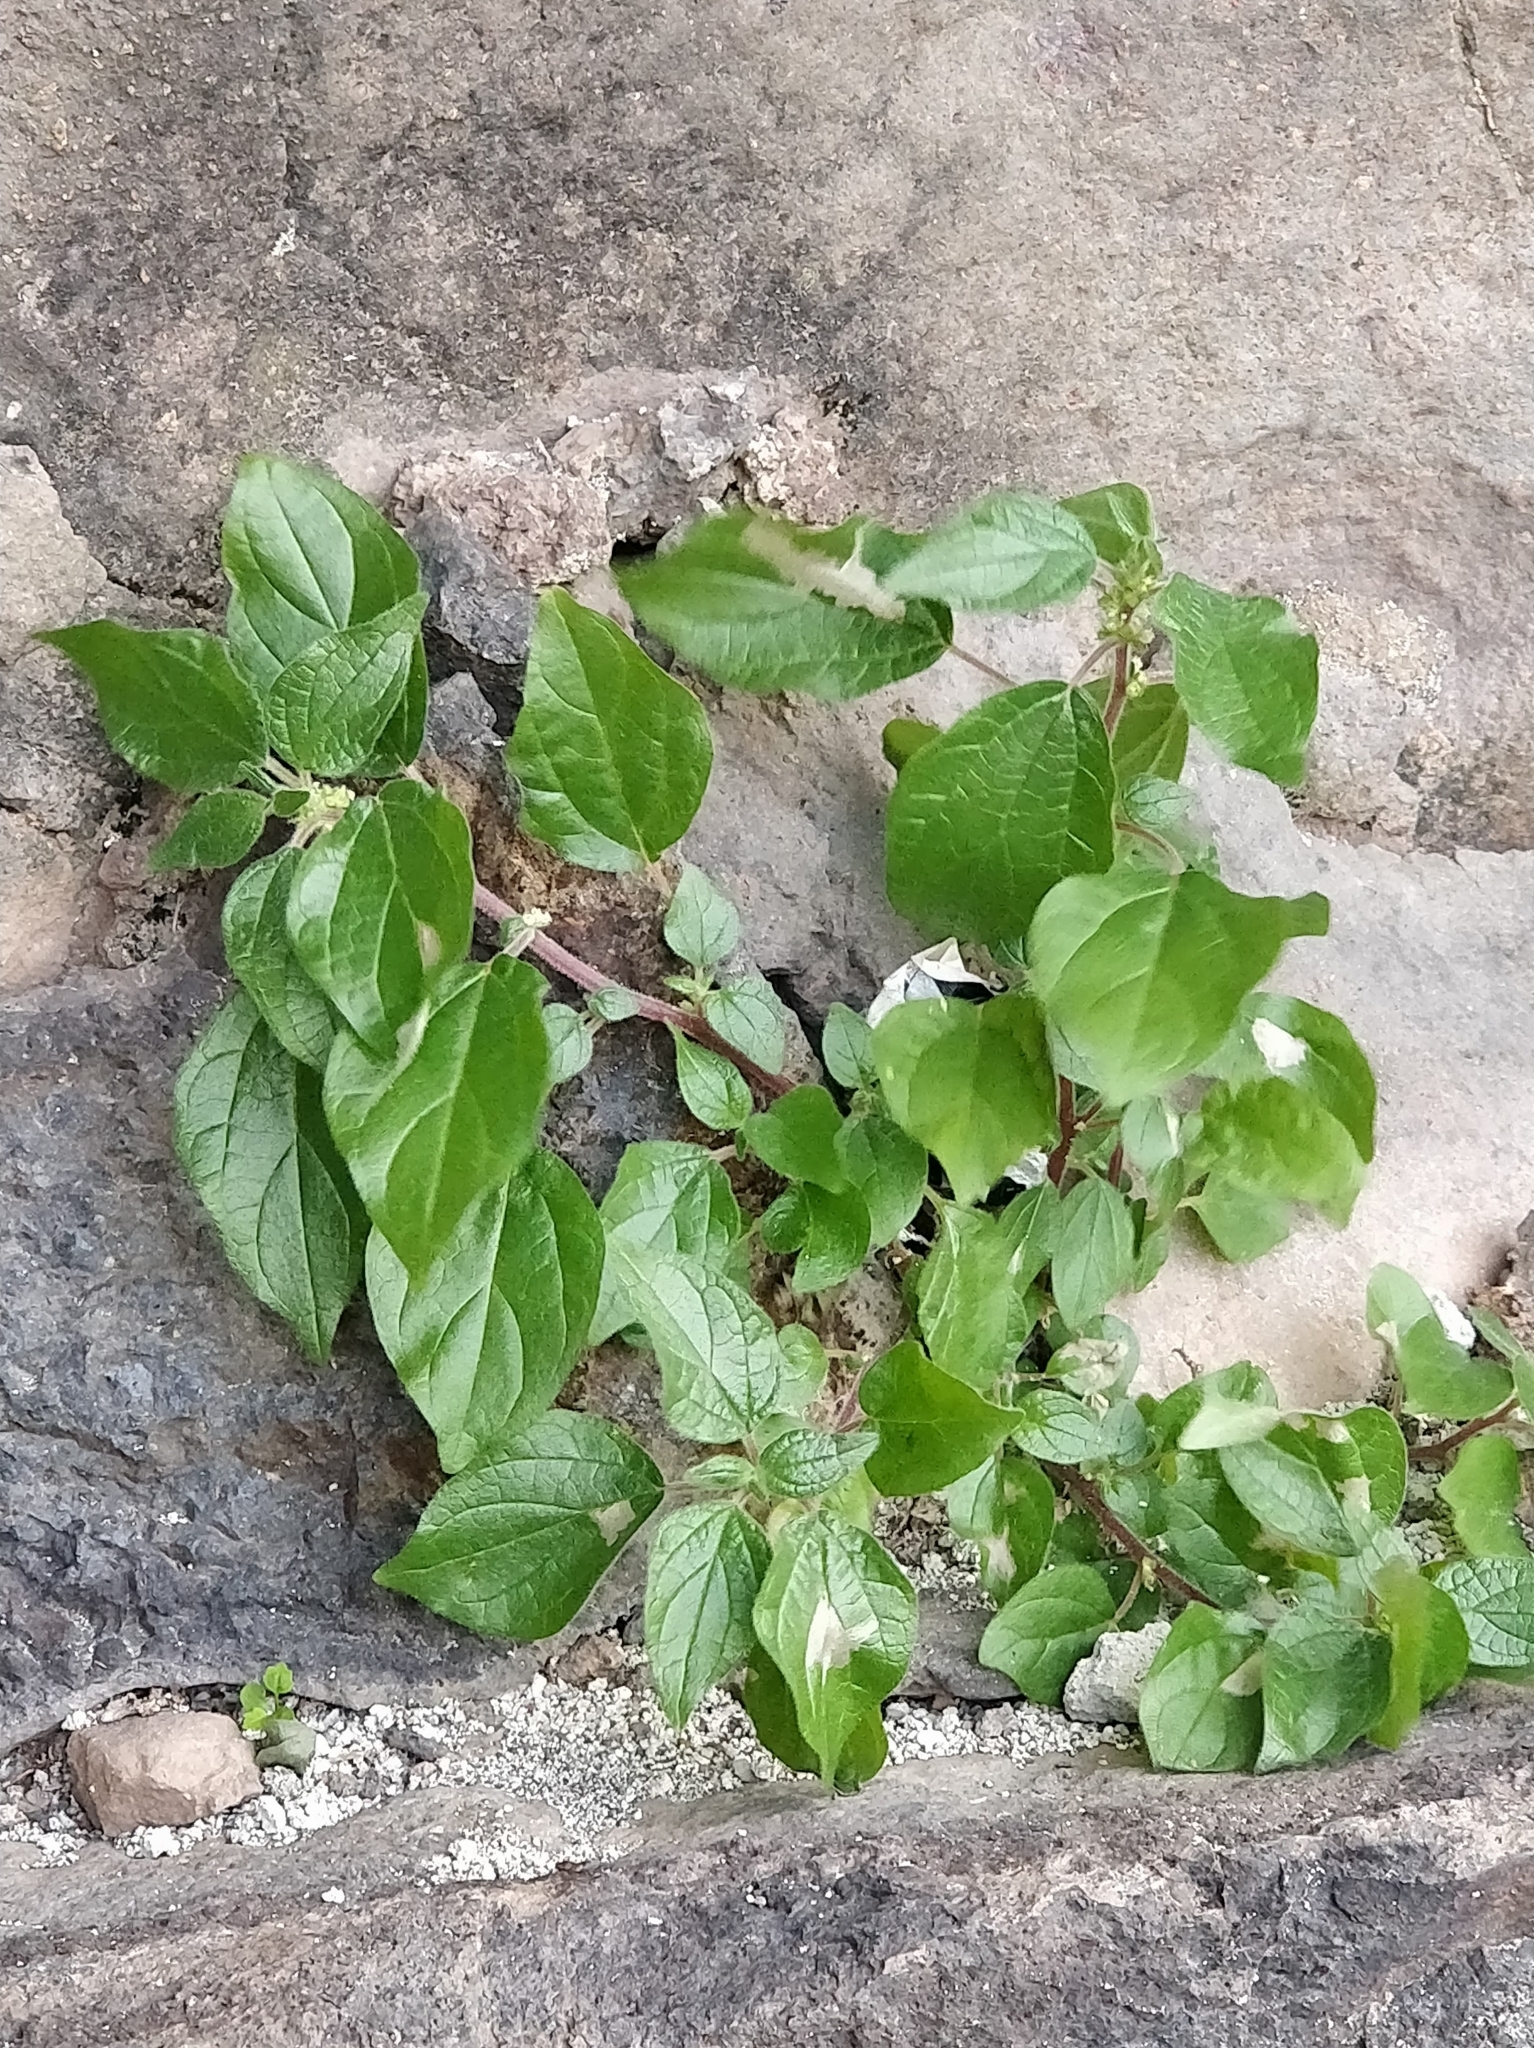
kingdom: Plantae
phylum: Tracheophyta
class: Magnoliopsida
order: Rosales
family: Urticaceae
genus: Parietaria
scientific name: Parietaria judaica
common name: Pellitory-of-the-wall
